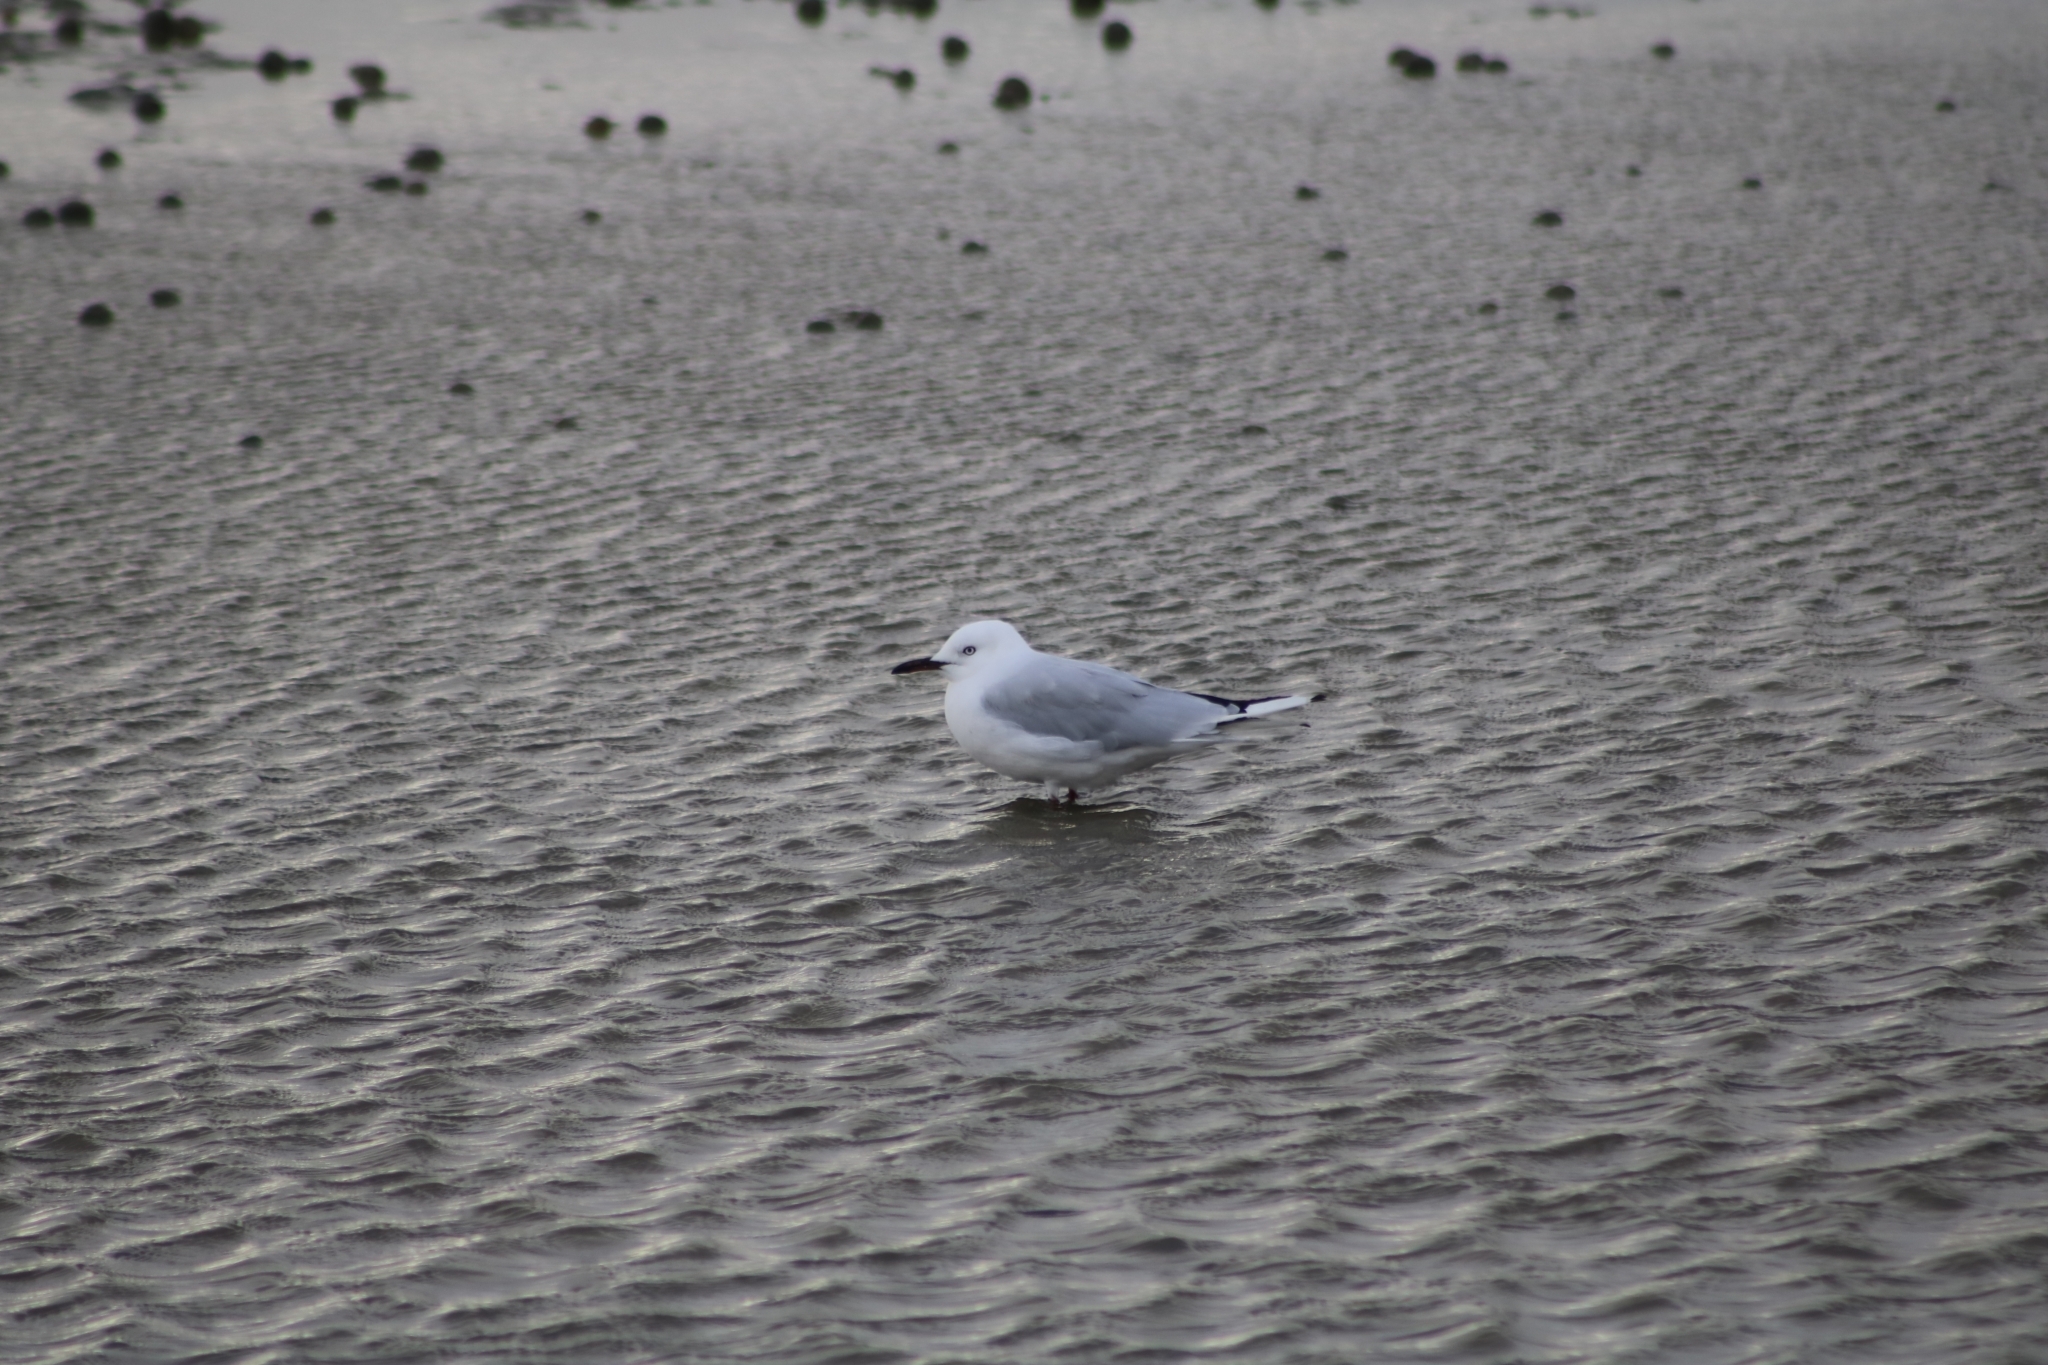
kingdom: Animalia
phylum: Chordata
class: Aves
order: Charadriiformes
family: Laridae
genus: Chroicocephalus
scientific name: Chroicocephalus bulleri
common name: Black-billed gull
